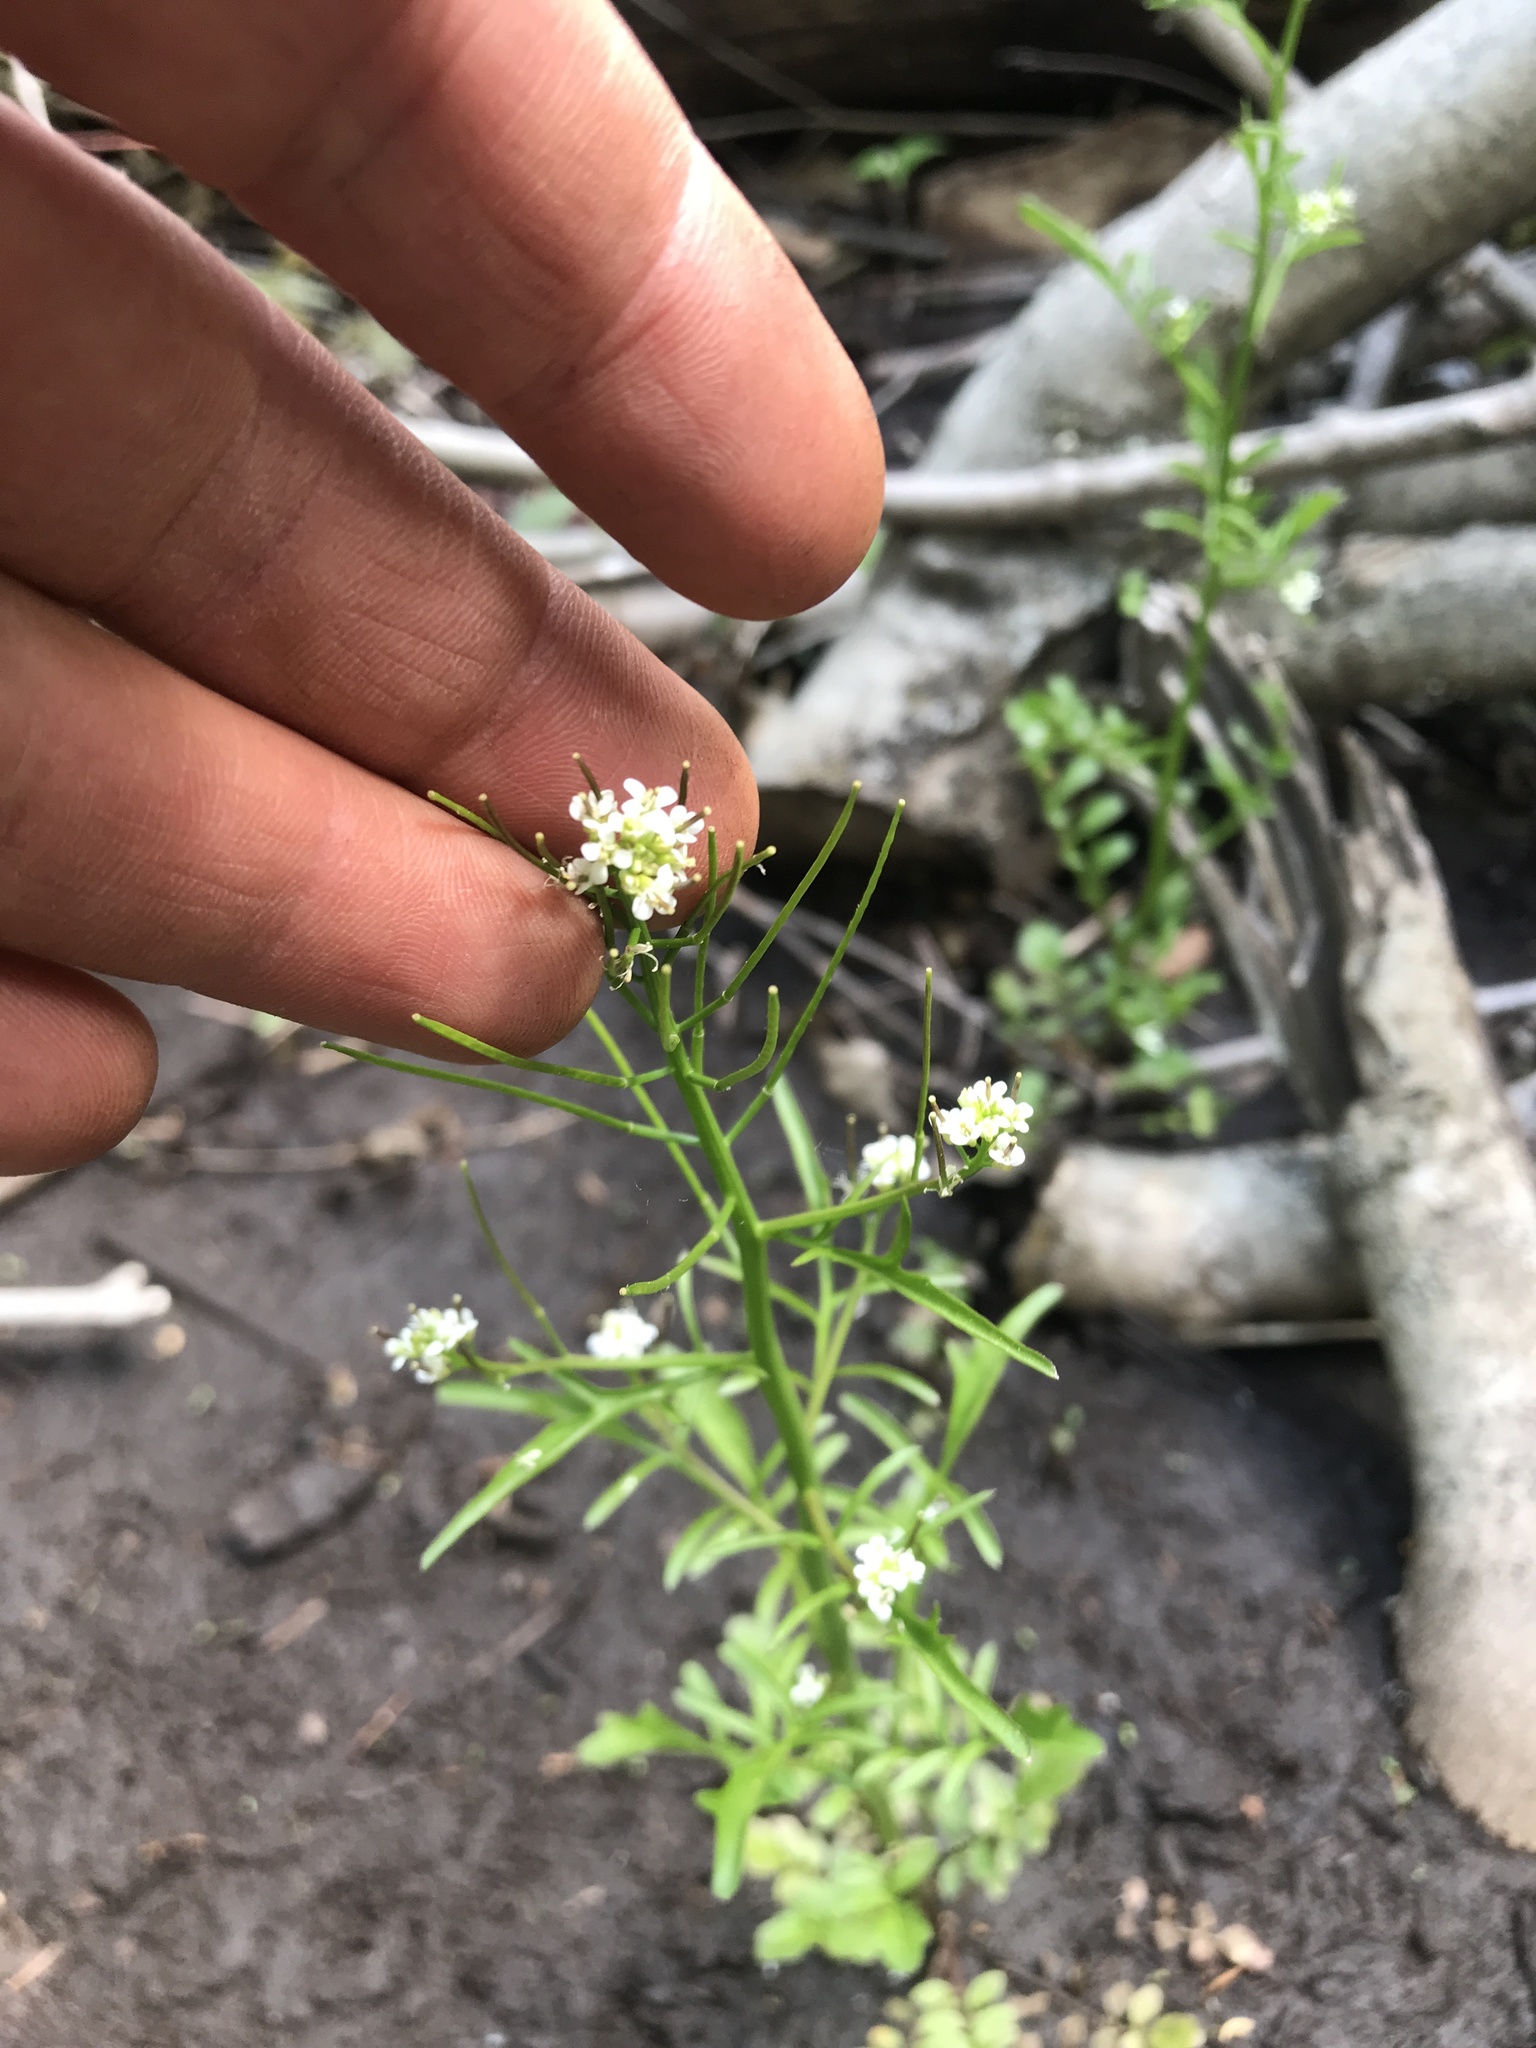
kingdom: Plantae
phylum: Tracheophyta
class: Magnoliopsida
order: Brassicales
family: Brassicaceae
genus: Cardamine
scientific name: Cardamine pensylvanica
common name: Pennsylvania bittercress
